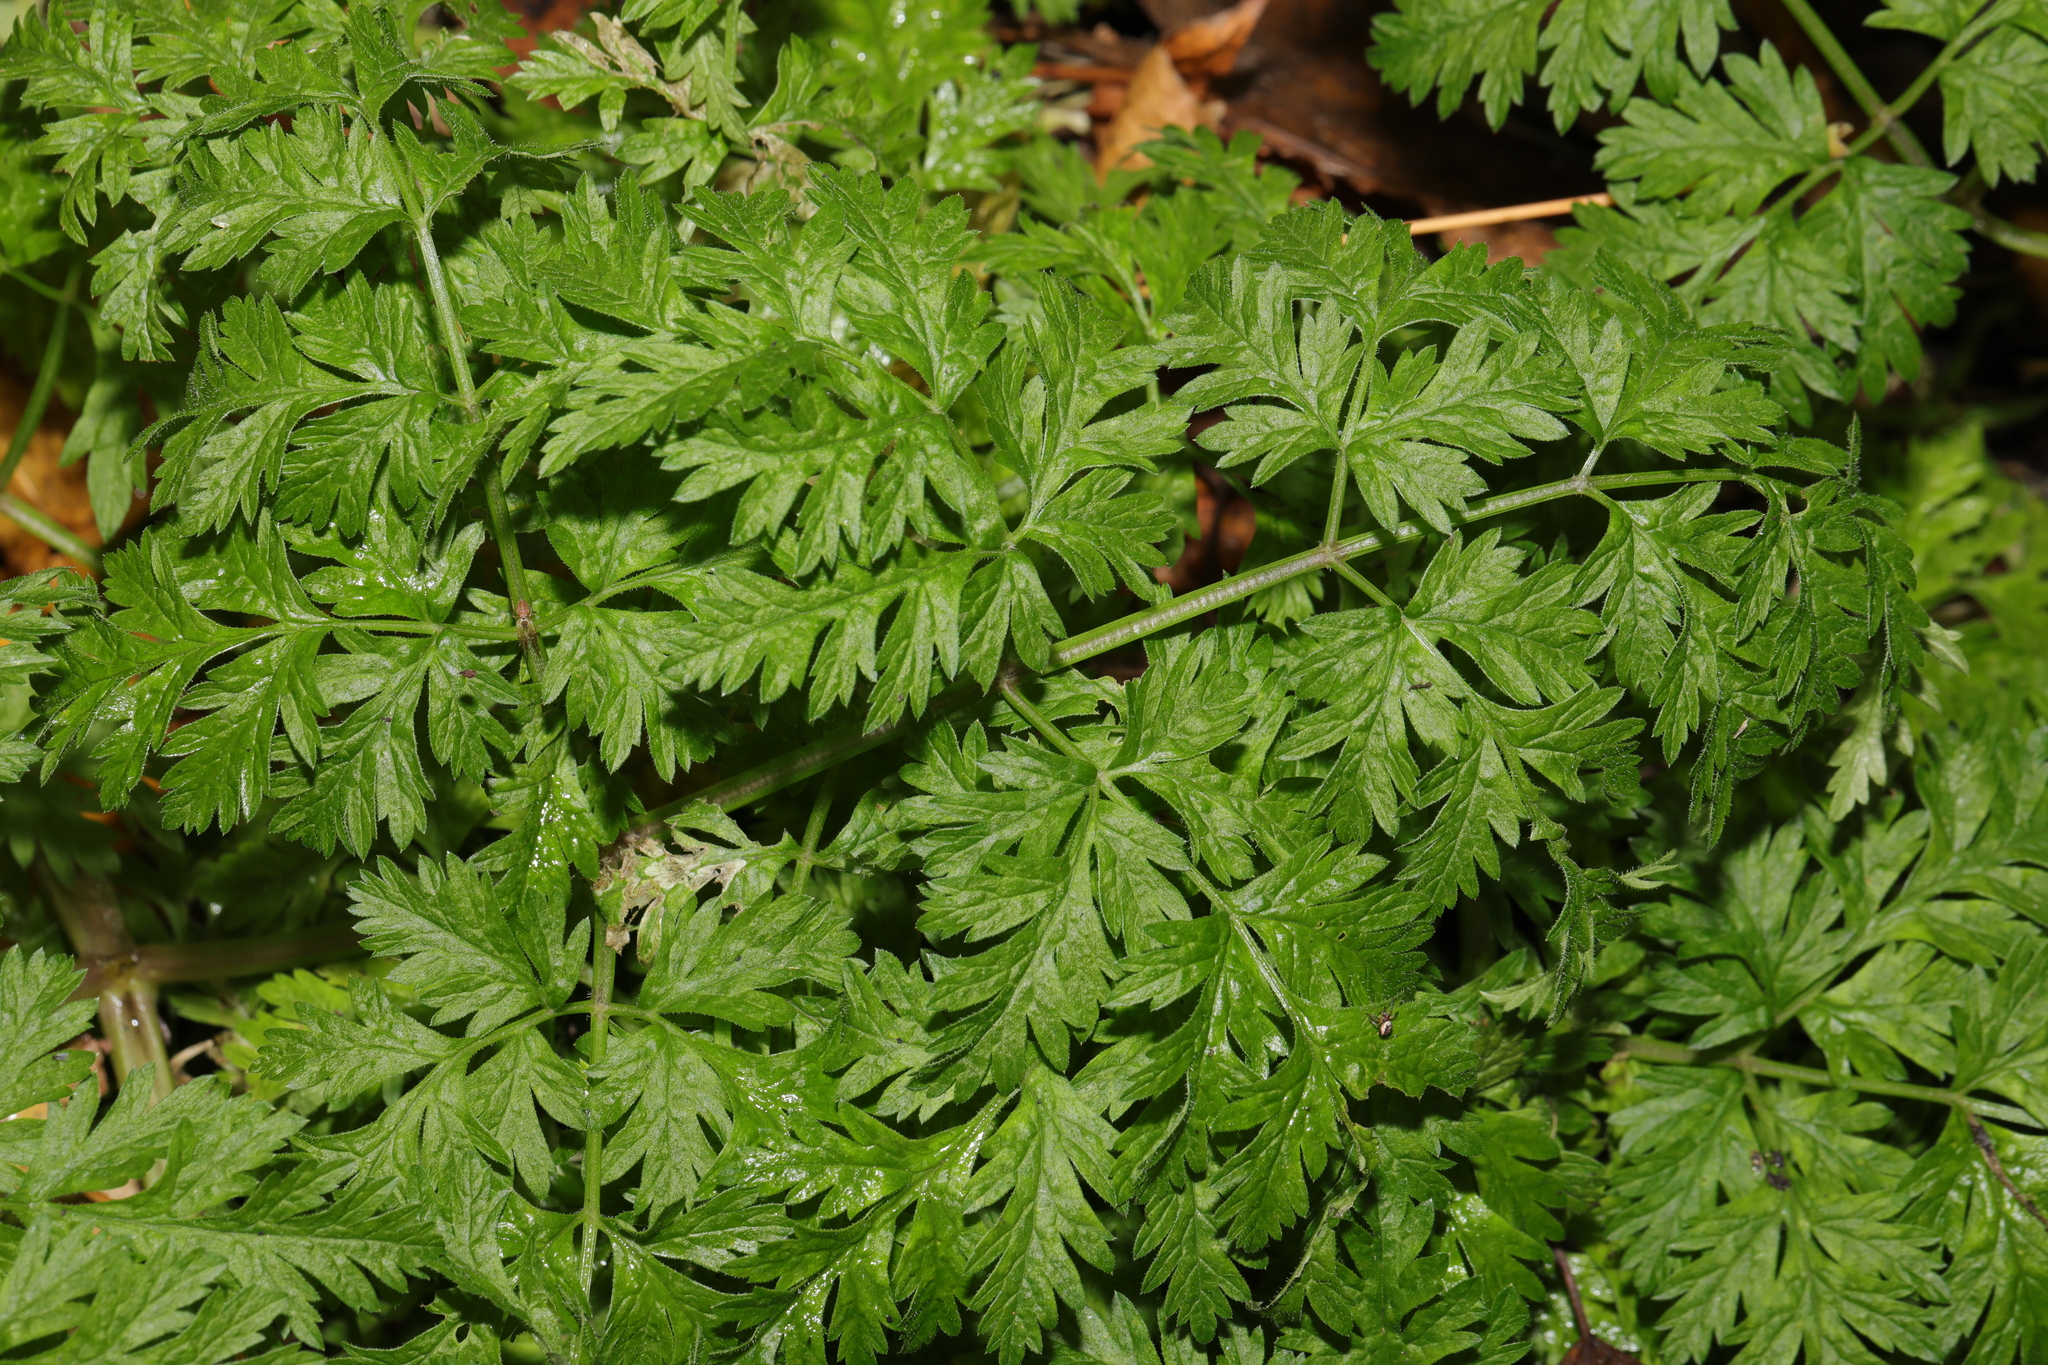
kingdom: Plantae
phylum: Tracheophyta
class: Magnoliopsida
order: Apiales
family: Apiaceae
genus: Anthriscus
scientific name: Anthriscus sylvestris
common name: Cow parsley
